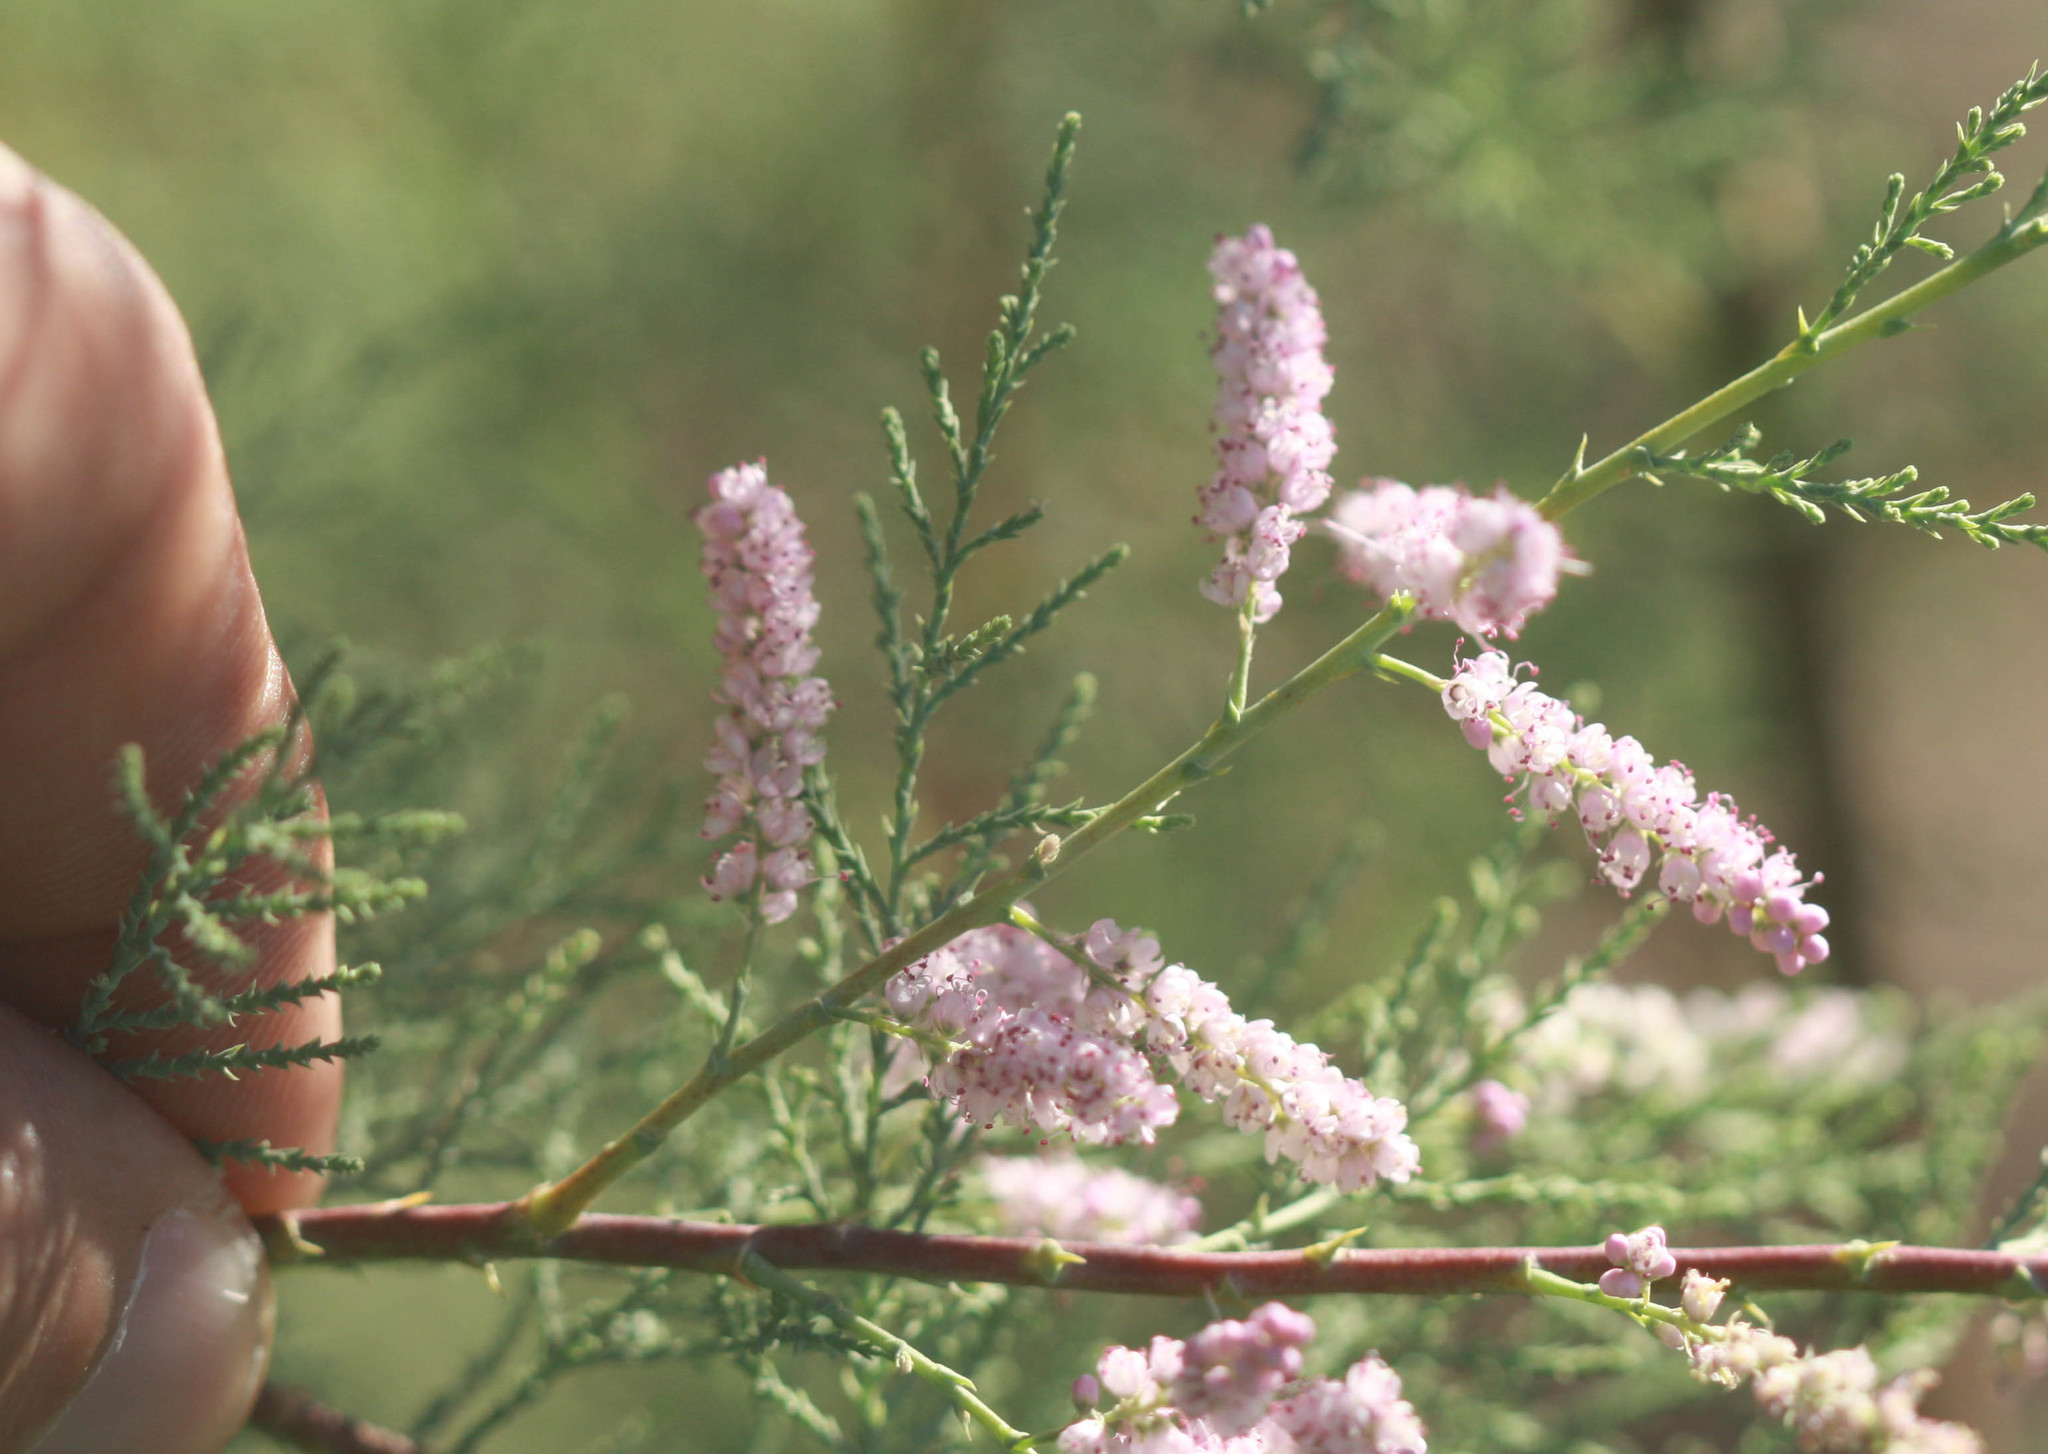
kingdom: Plantae
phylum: Tracheophyta
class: Magnoliopsida
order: Caryophyllales
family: Tamaricaceae
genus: Tamarix
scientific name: Tamarix ramosissima
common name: Pink tamarisk
